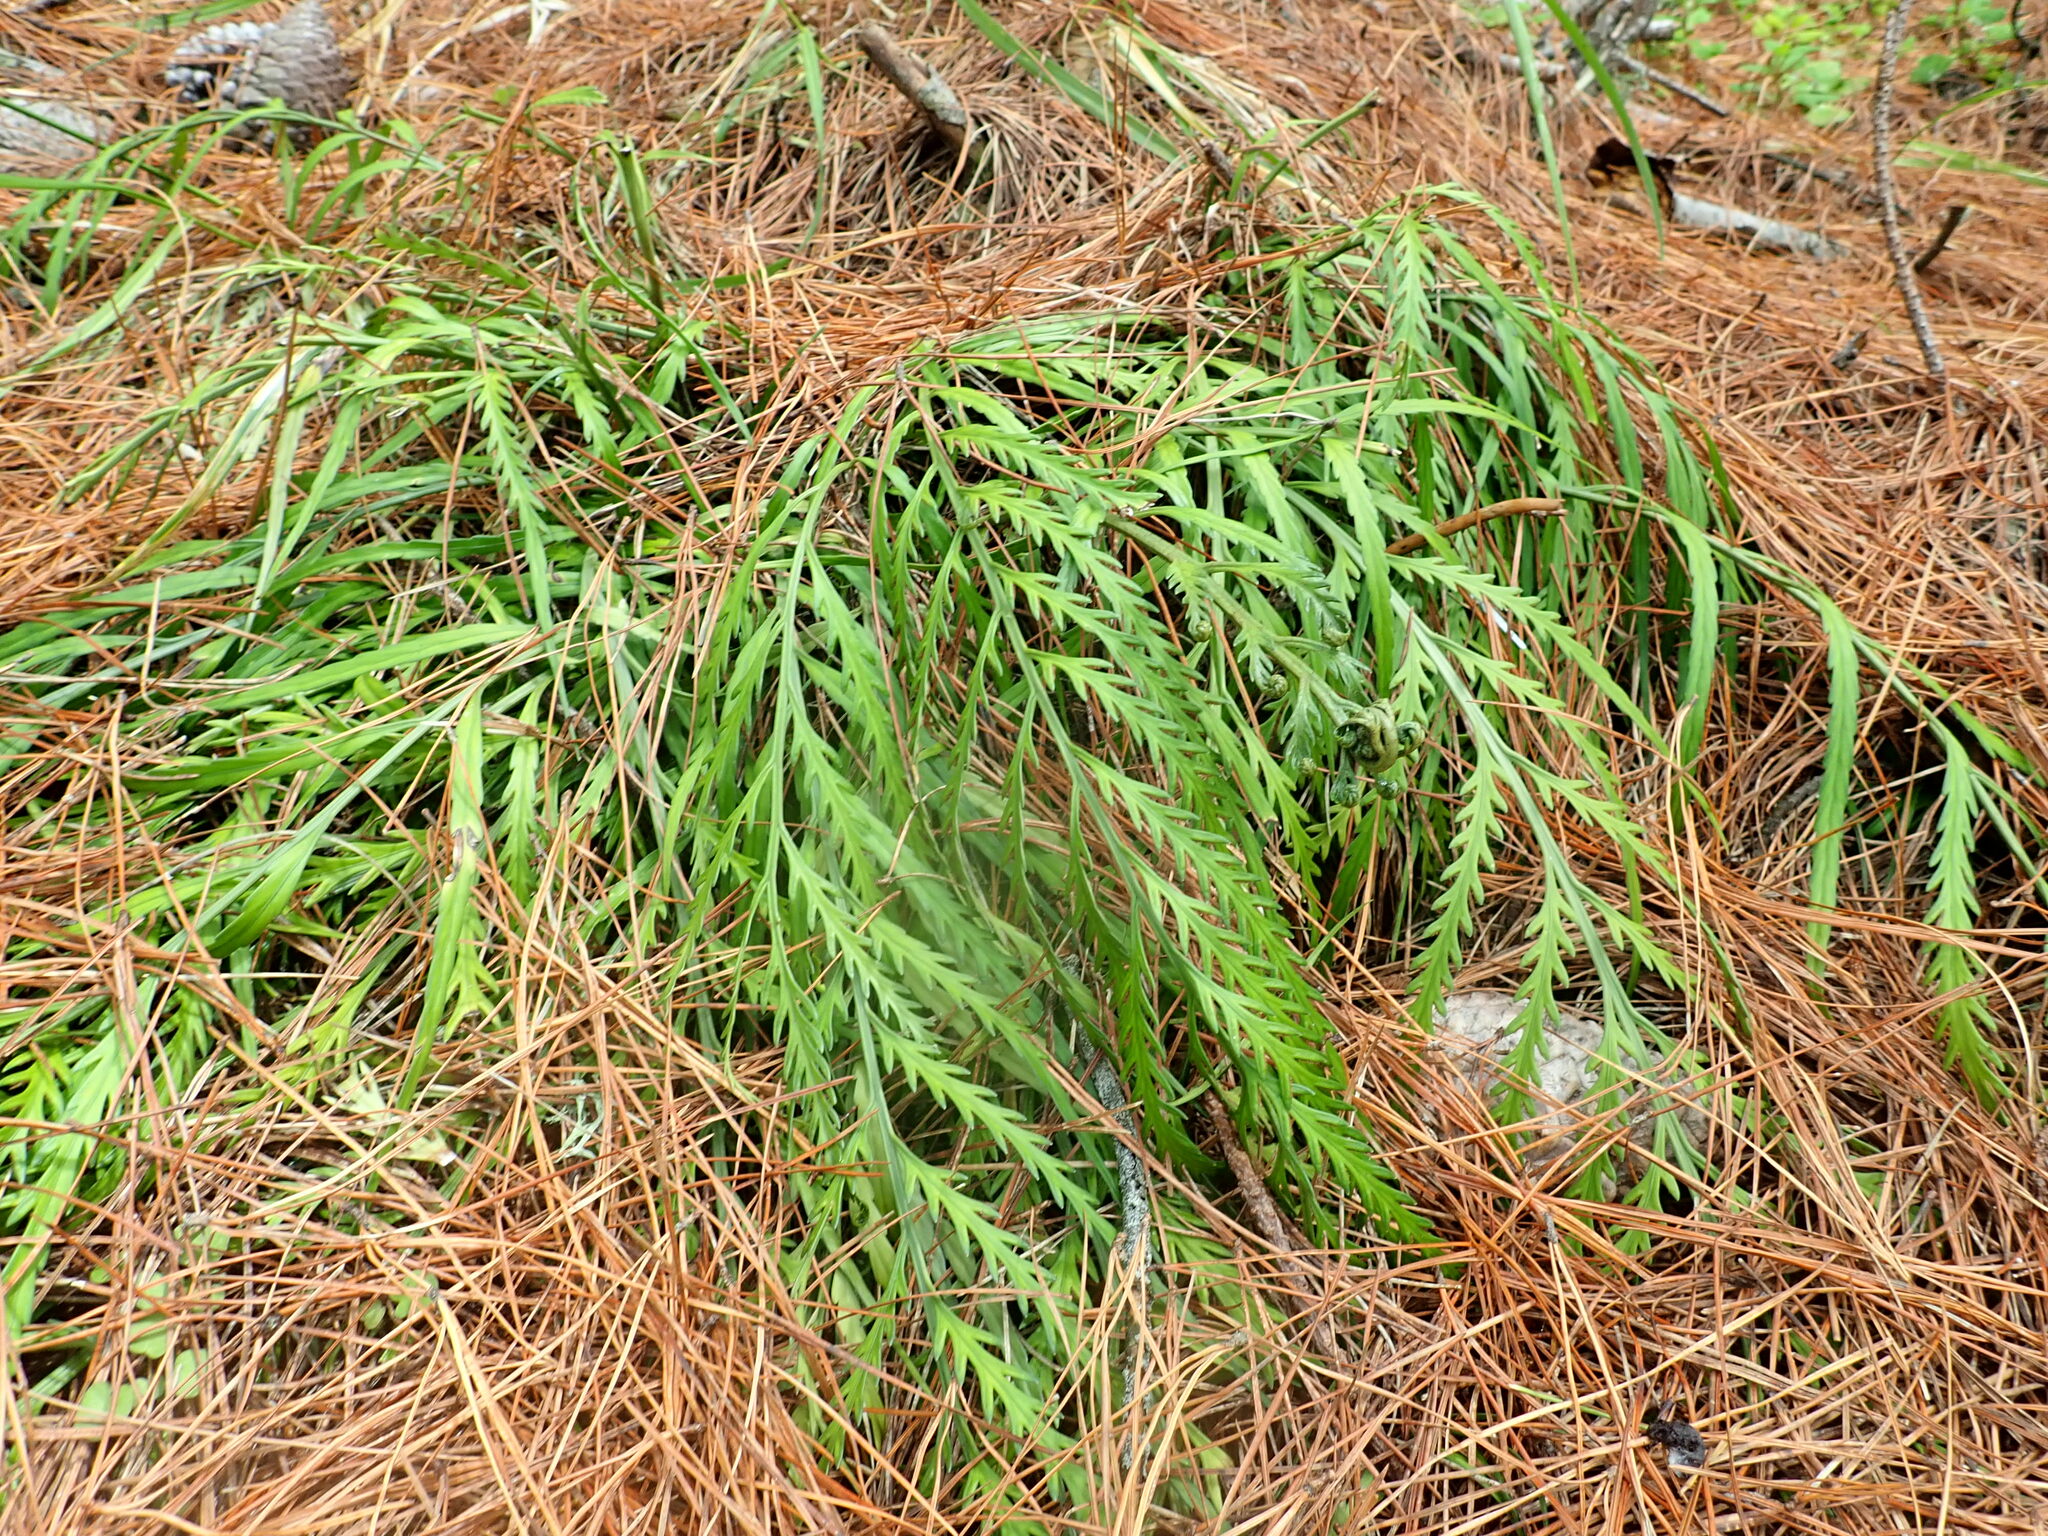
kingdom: Plantae
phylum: Tracheophyta
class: Polypodiopsida
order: Polypodiales
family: Aspleniaceae
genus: Asplenium
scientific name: Asplenium flaccidum
